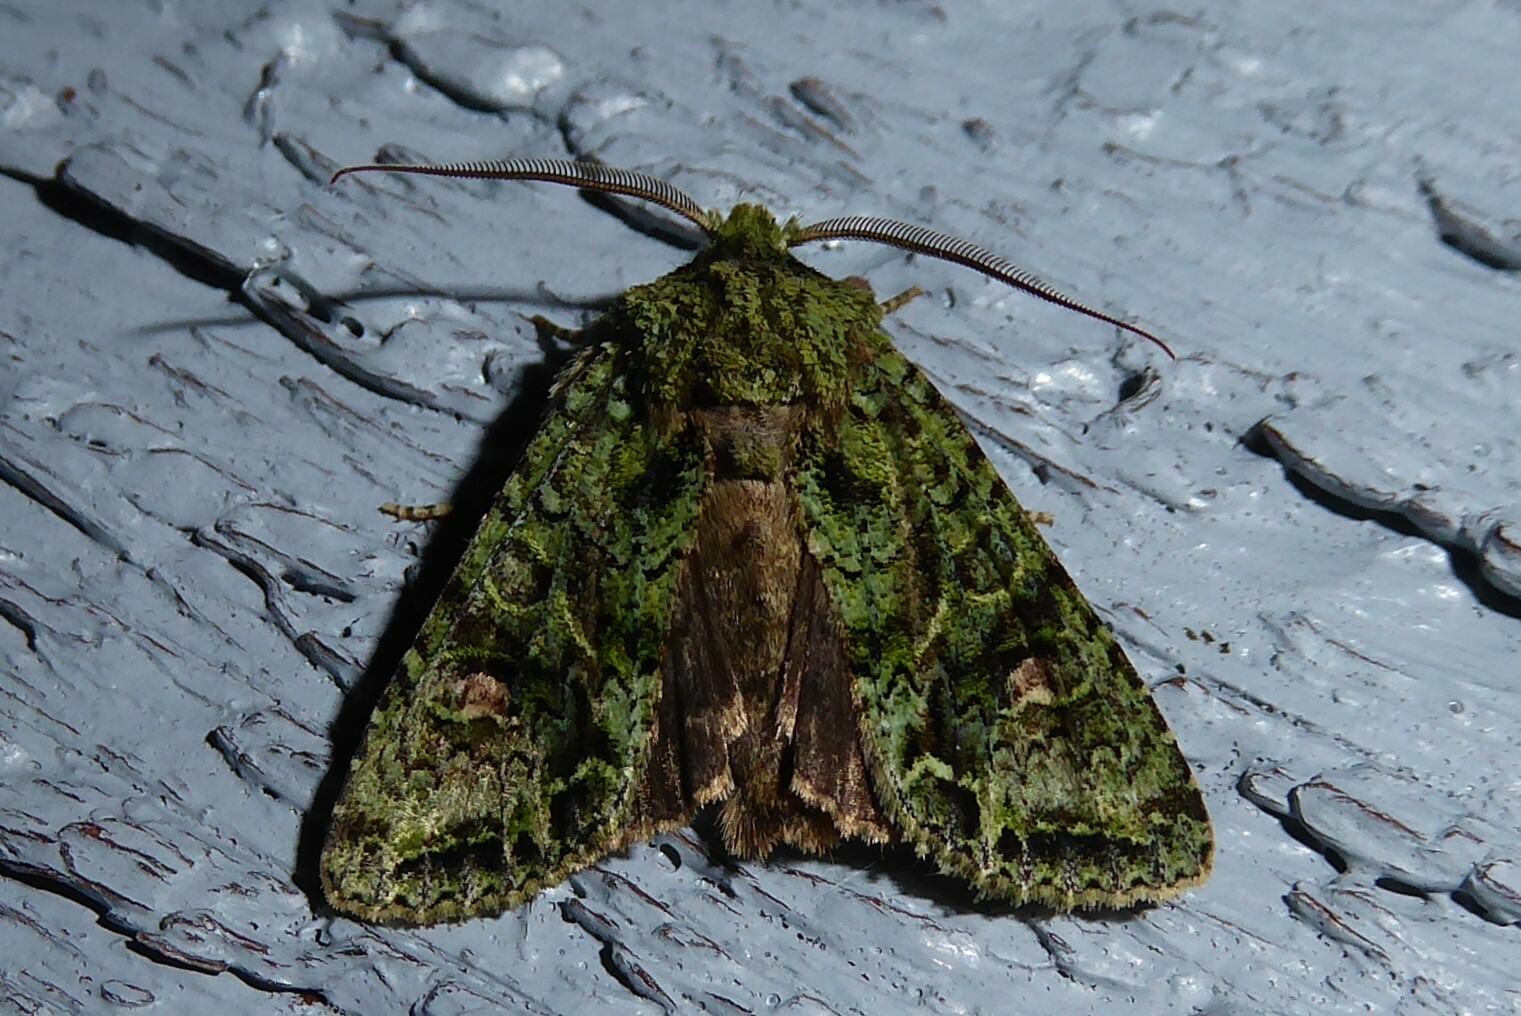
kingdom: Animalia
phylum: Arthropoda
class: Insecta
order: Lepidoptera
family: Noctuidae
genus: Ichneutica
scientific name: Ichneutica
